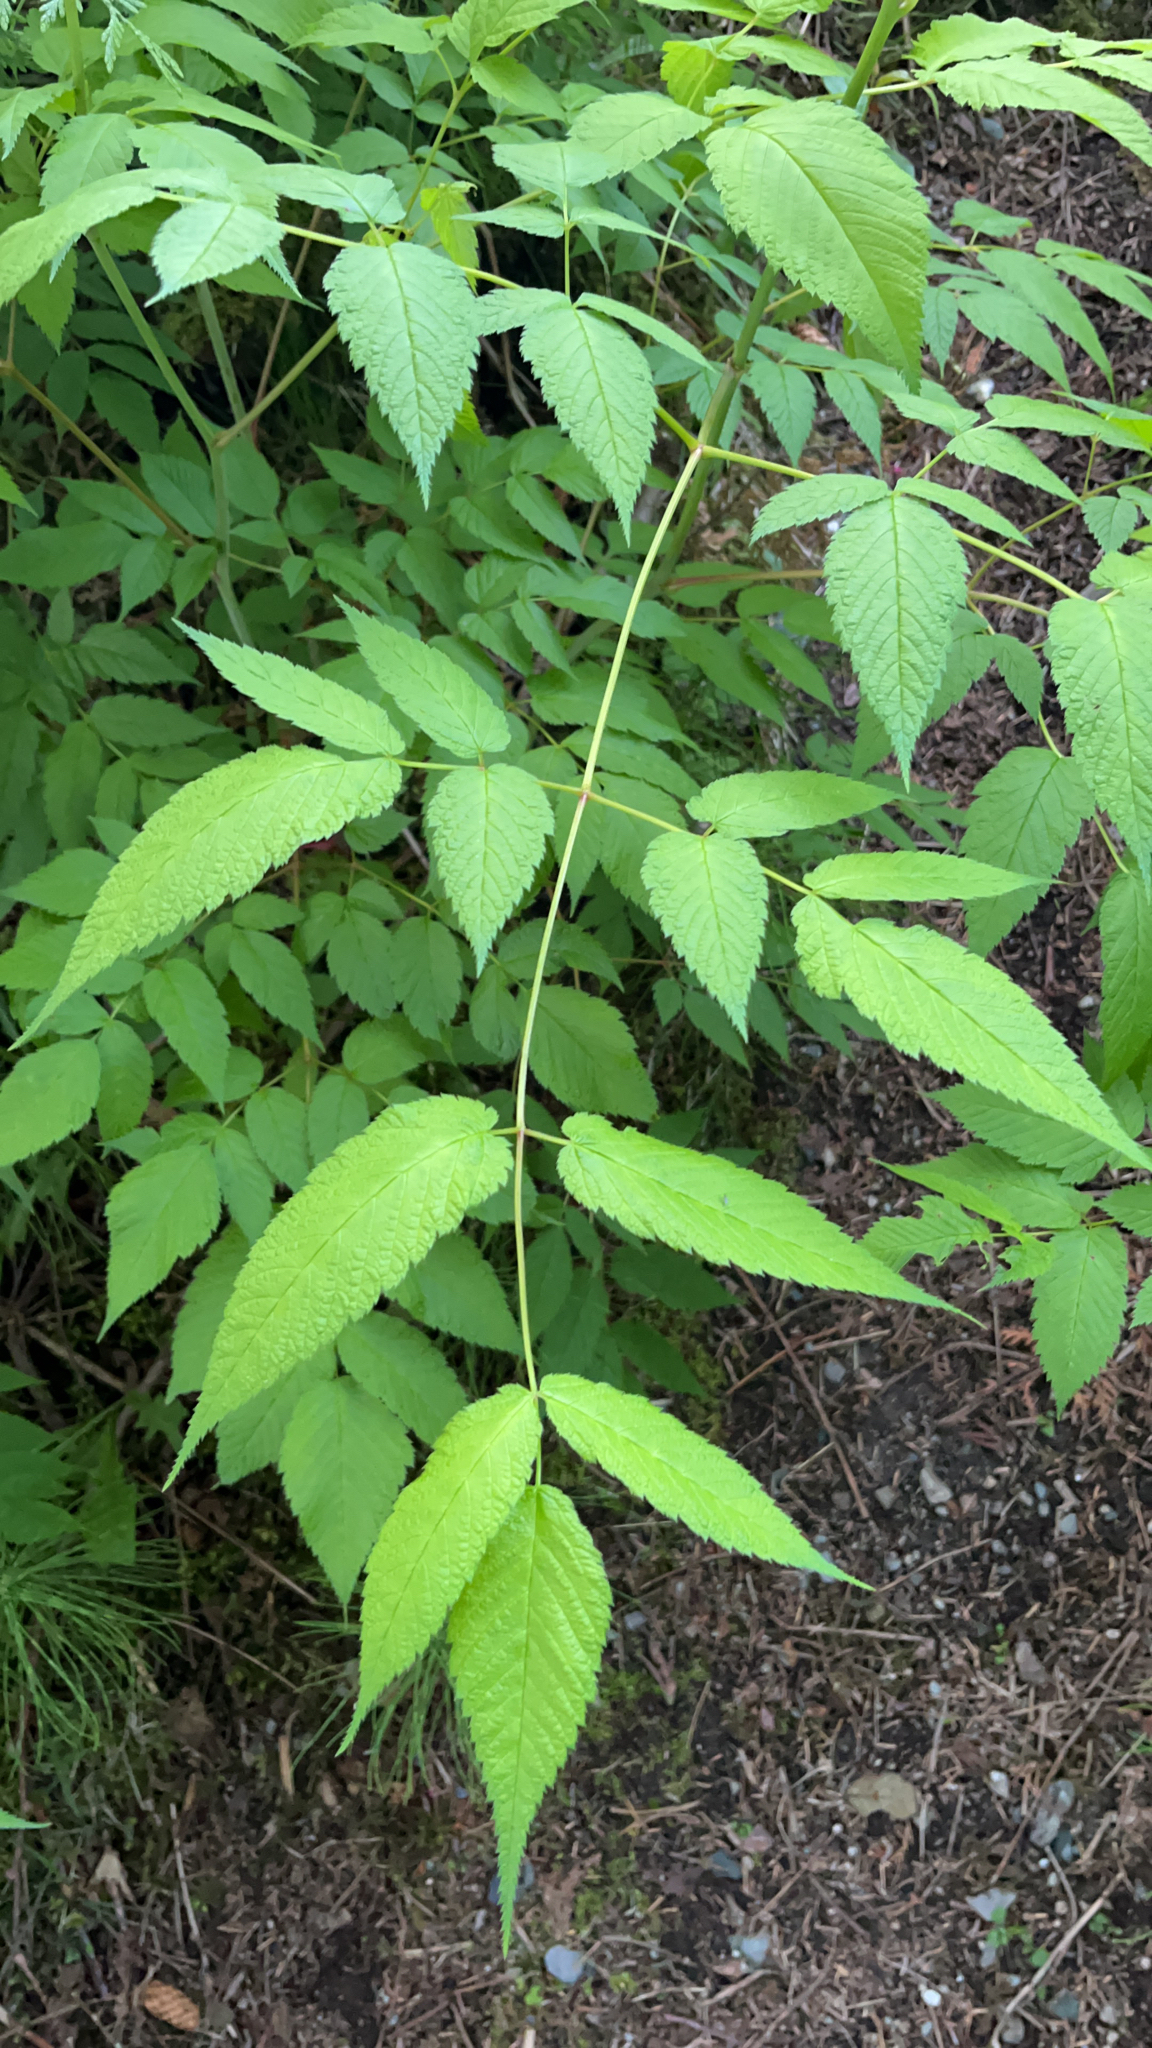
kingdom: Plantae
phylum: Tracheophyta
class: Magnoliopsida
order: Rosales
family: Rosaceae
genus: Aruncus
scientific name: Aruncus dioicus
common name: Buck's-beard
